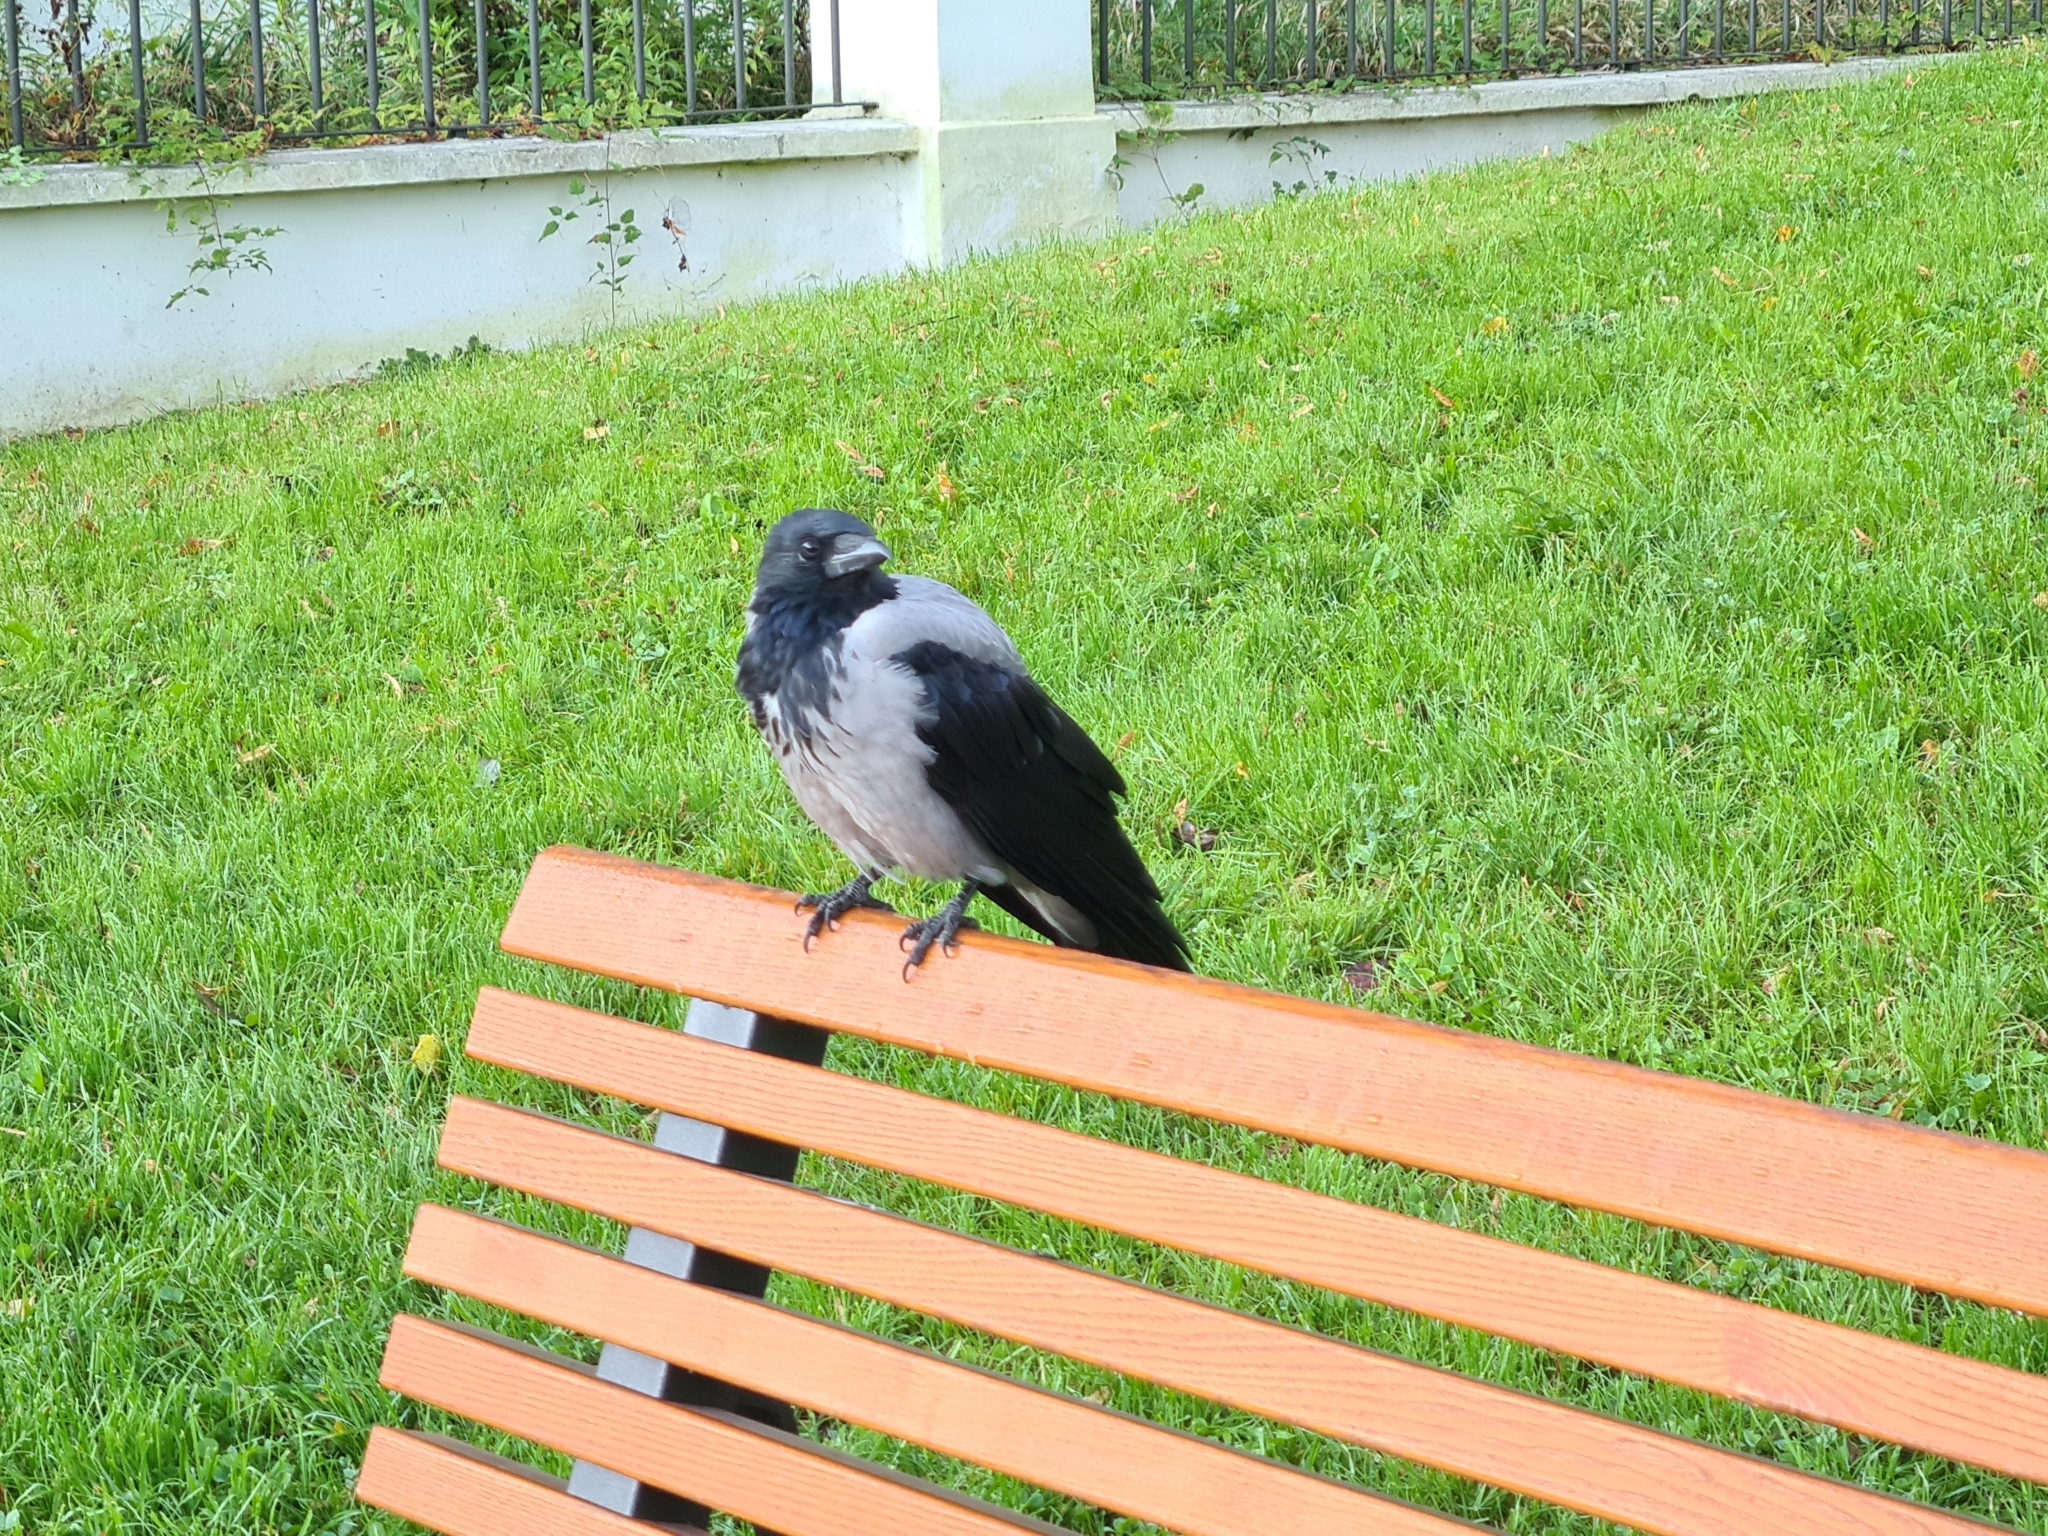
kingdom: Animalia
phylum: Chordata
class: Aves
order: Passeriformes
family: Corvidae
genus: Corvus
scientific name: Corvus cornix
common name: Hooded crow
